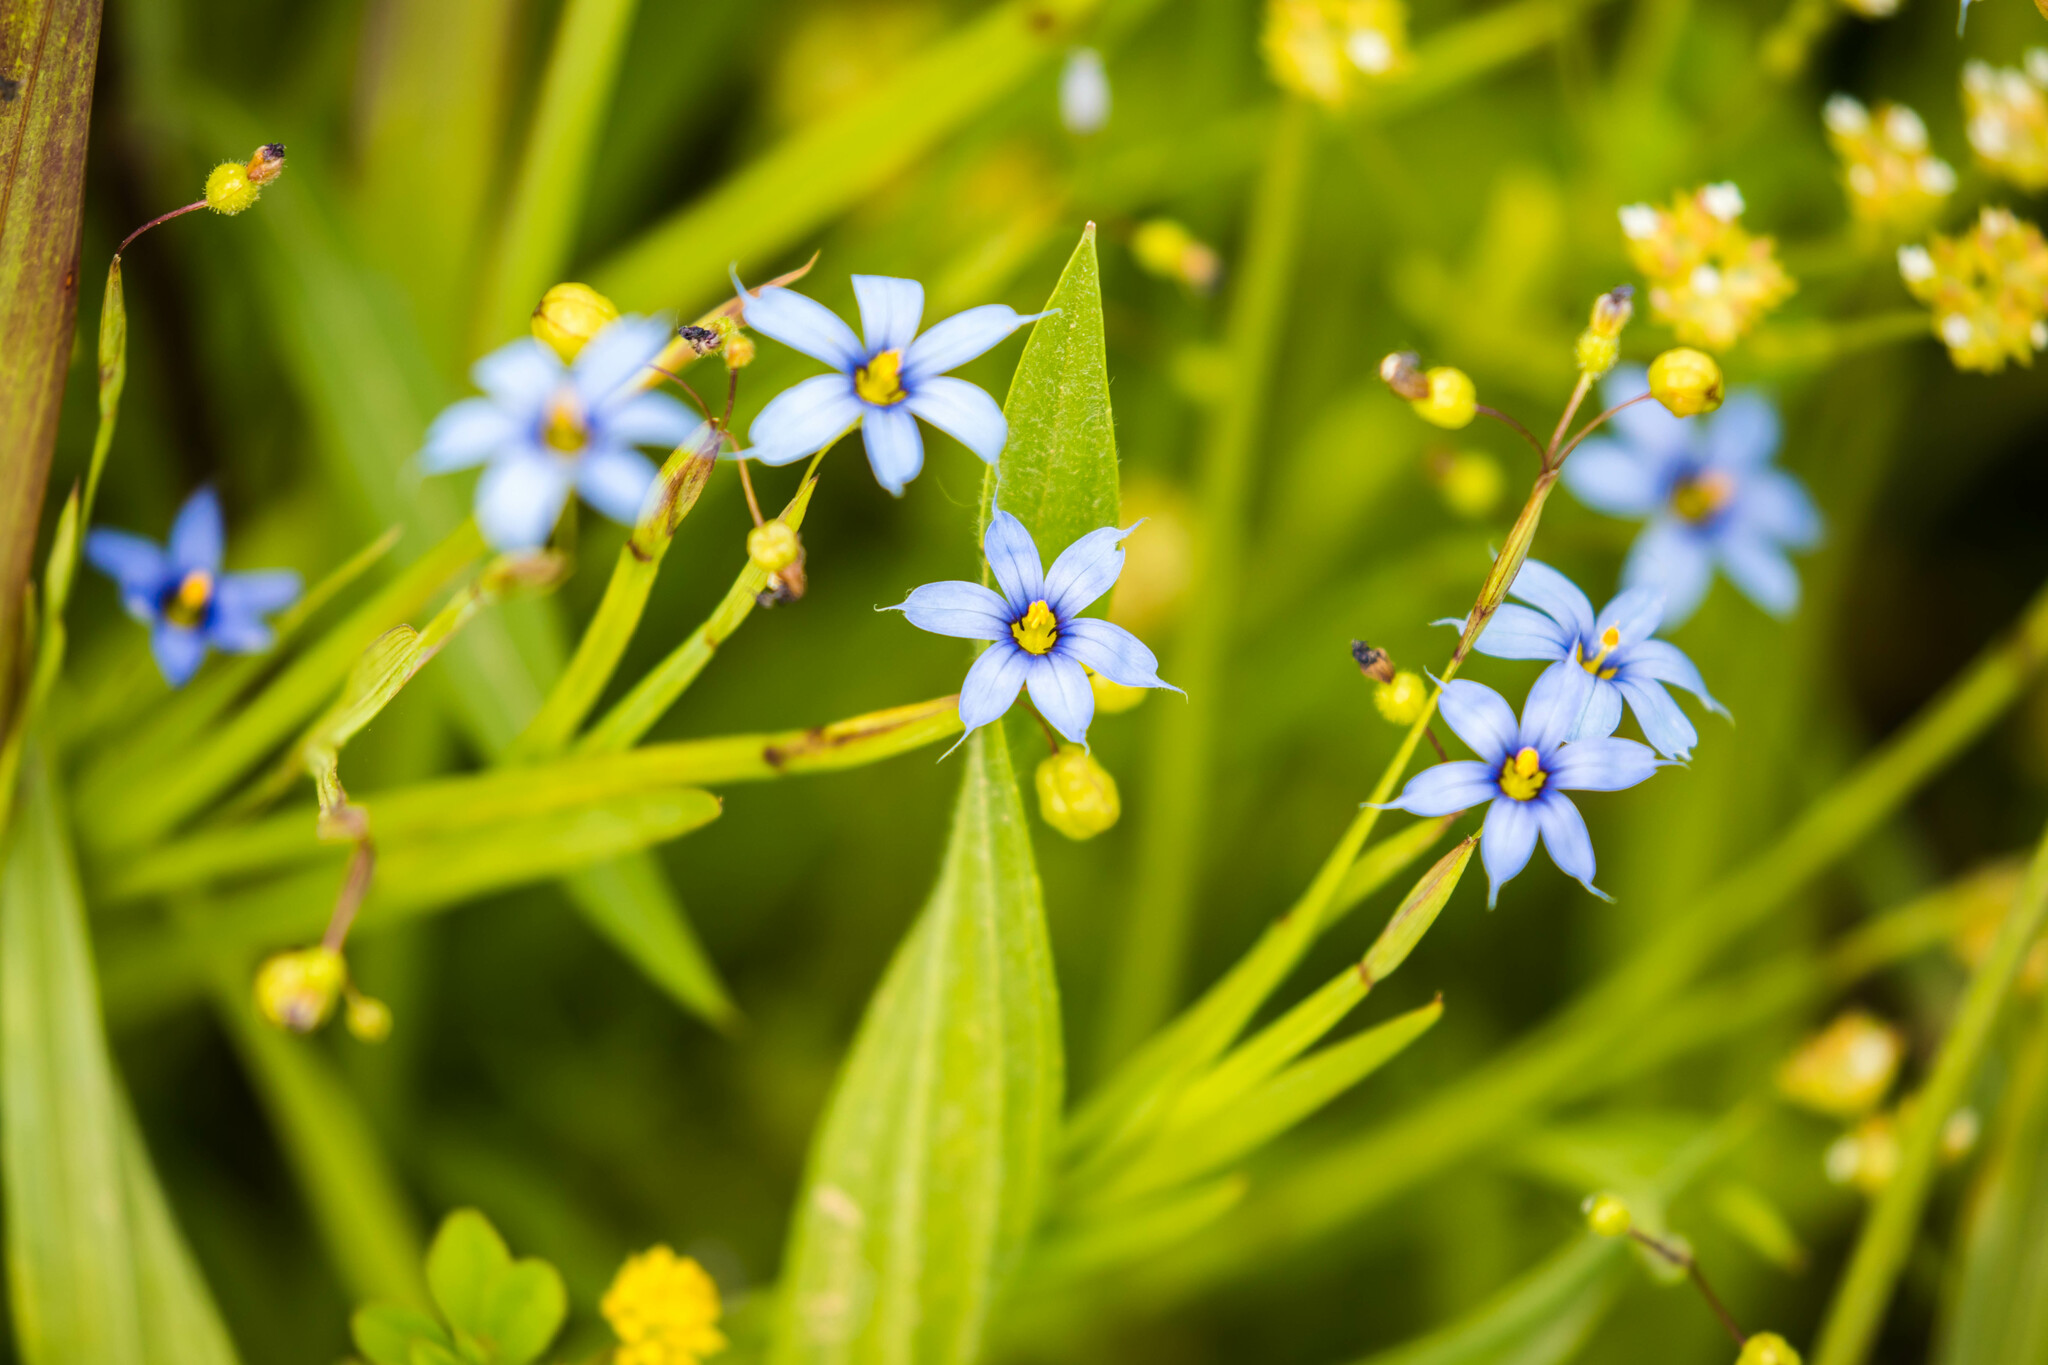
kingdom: Plantae
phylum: Tracheophyta
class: Liliopsida
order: Asparagales
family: Iridaceae
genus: Sisyrinchium
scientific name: Sisyrinchium angustifolium
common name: Narrow-leaf blue-eyed-grass
